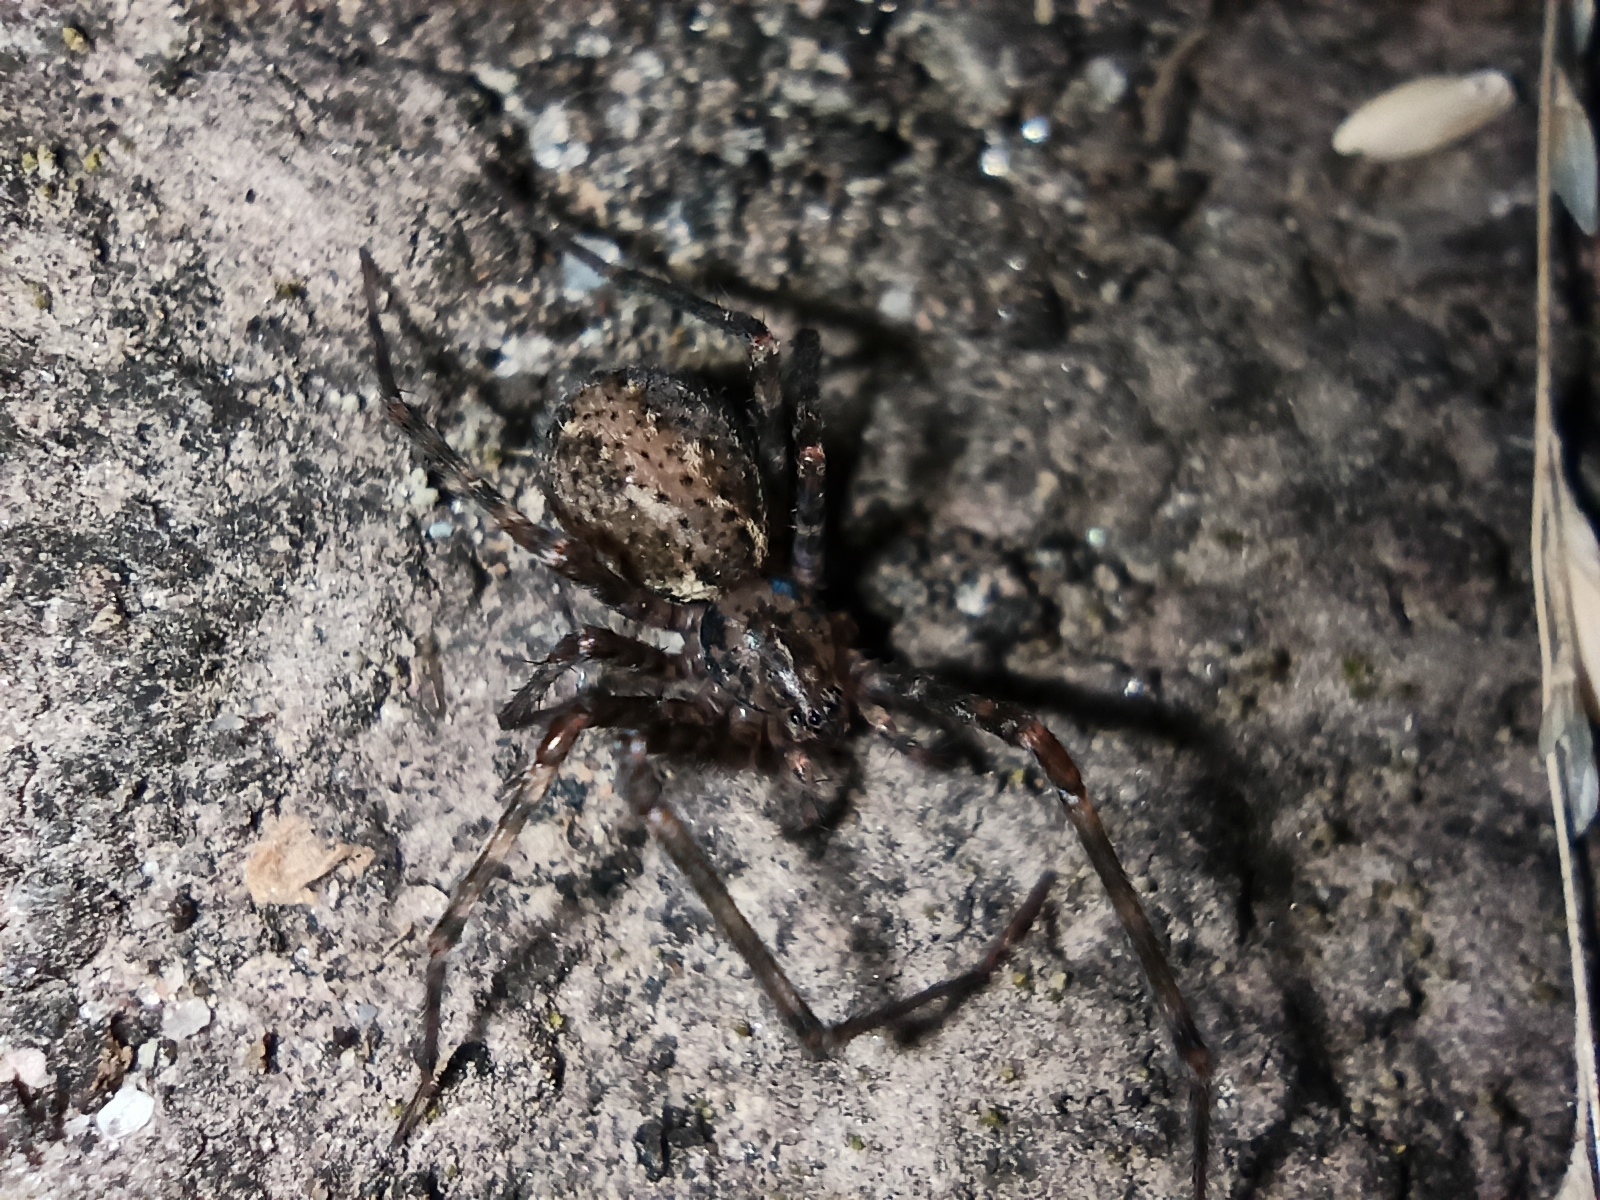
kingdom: Animalia
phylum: Arthropoda
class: Arachnida
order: Araneae
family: Stiphidiidae
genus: Stiphidion
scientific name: Stiphidion facetum
